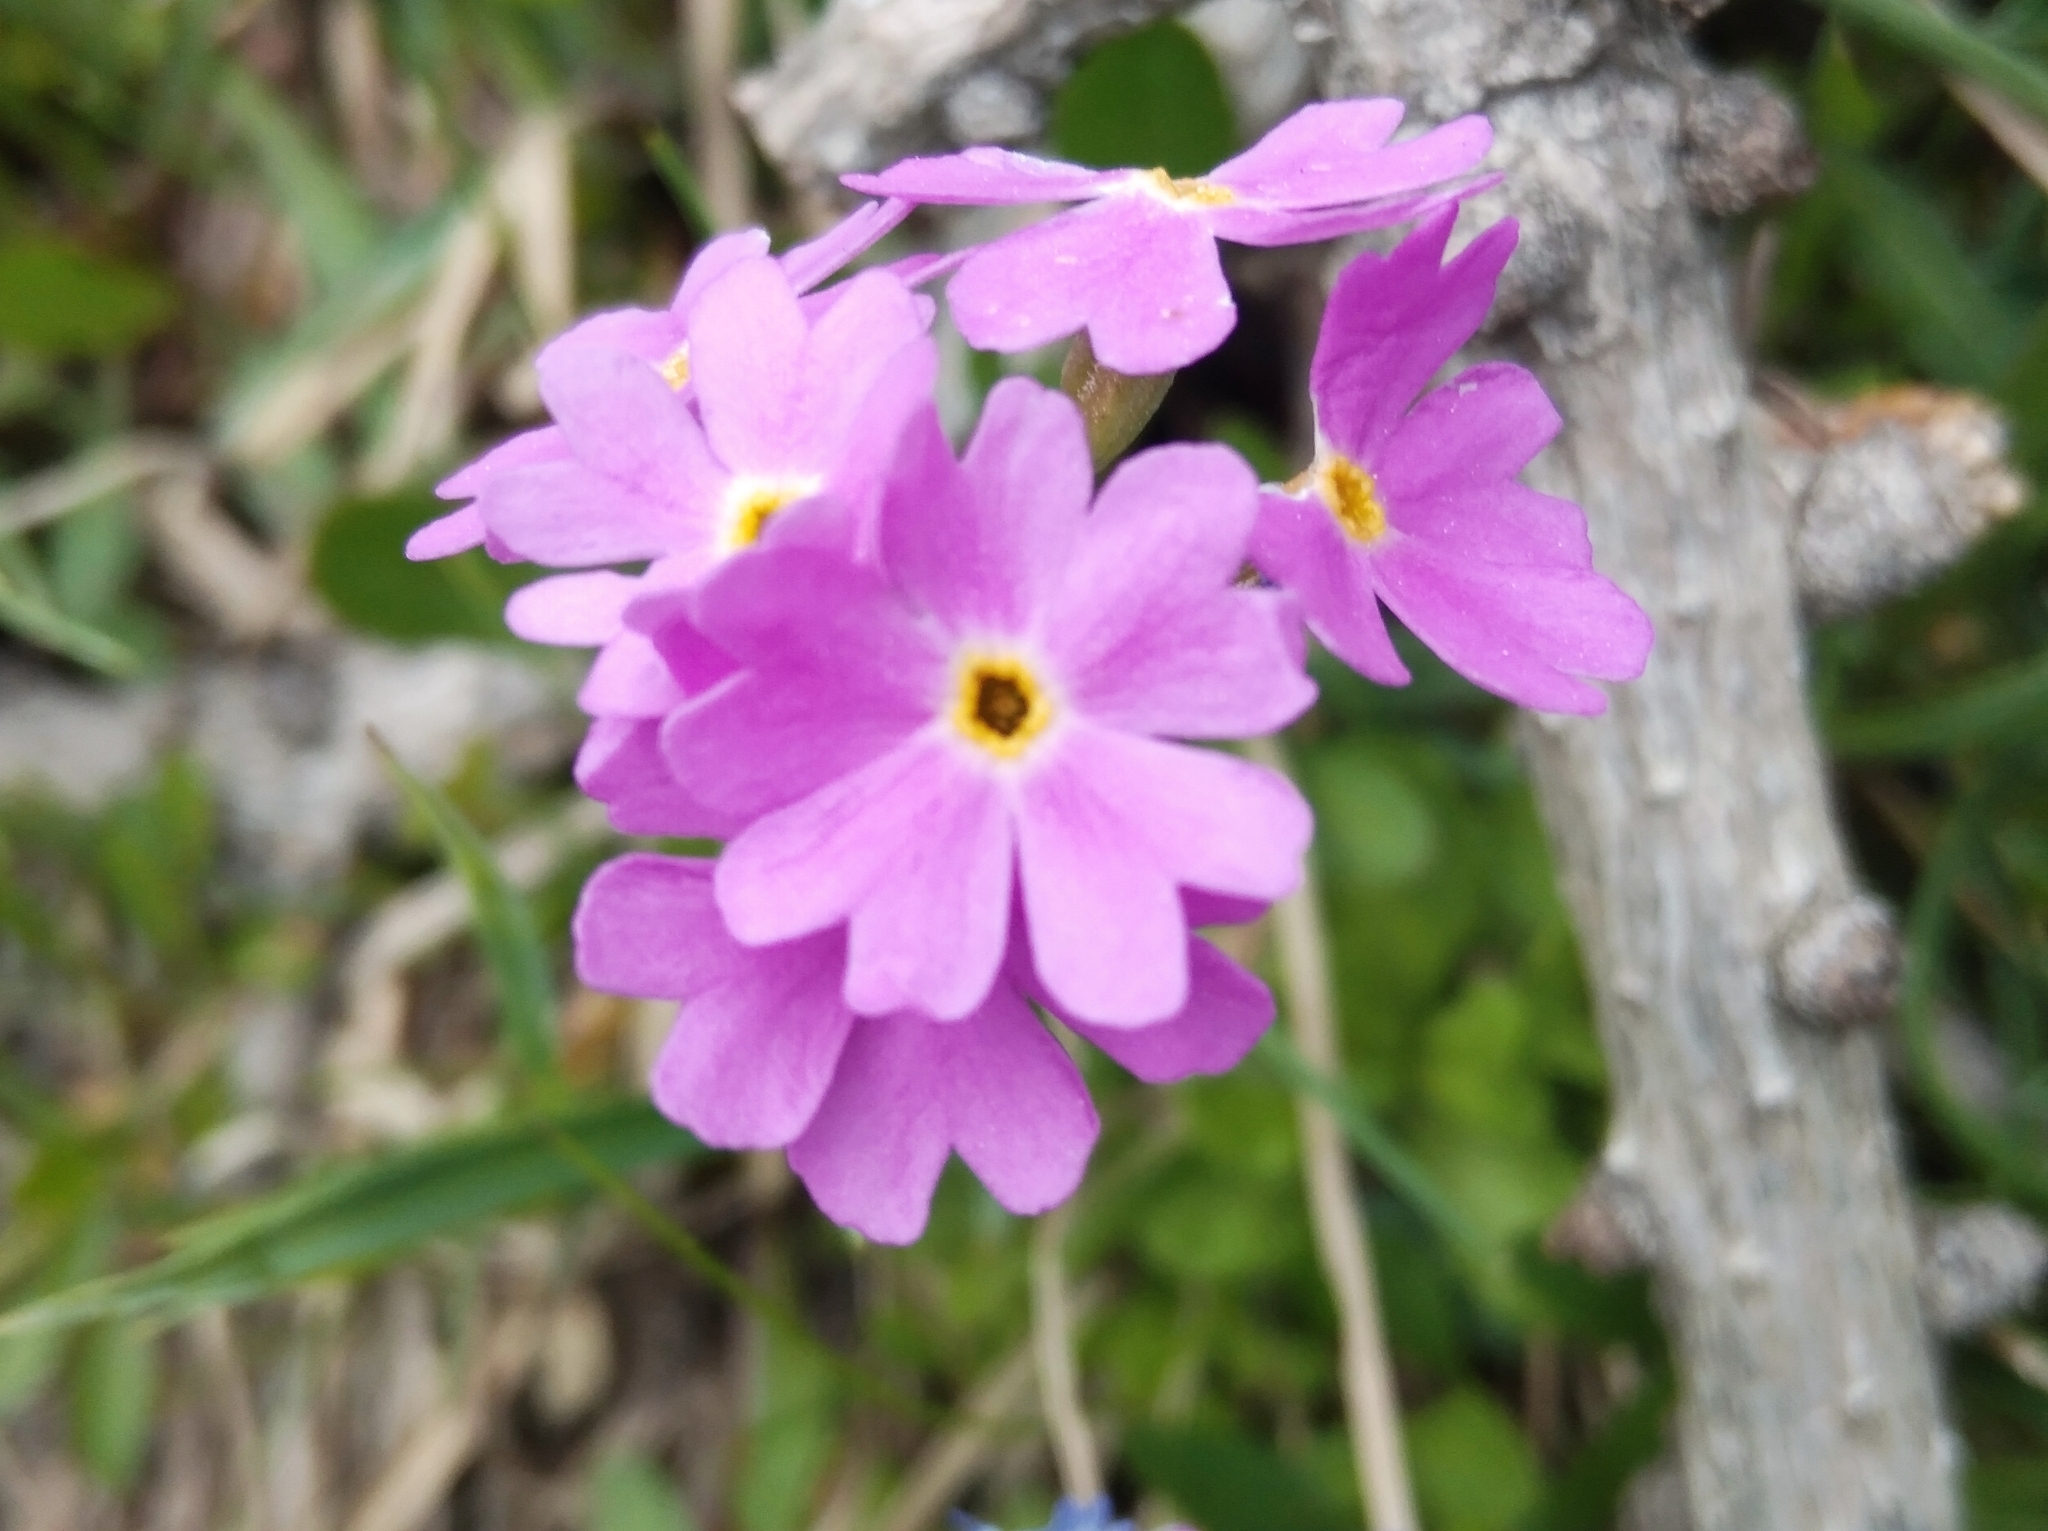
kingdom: Plantae
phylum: Tracheophyta
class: Magnoliopsida
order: Ericales
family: Primulaceae
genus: Primula
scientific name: Primula farinosa
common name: Bird's-eye primrose
